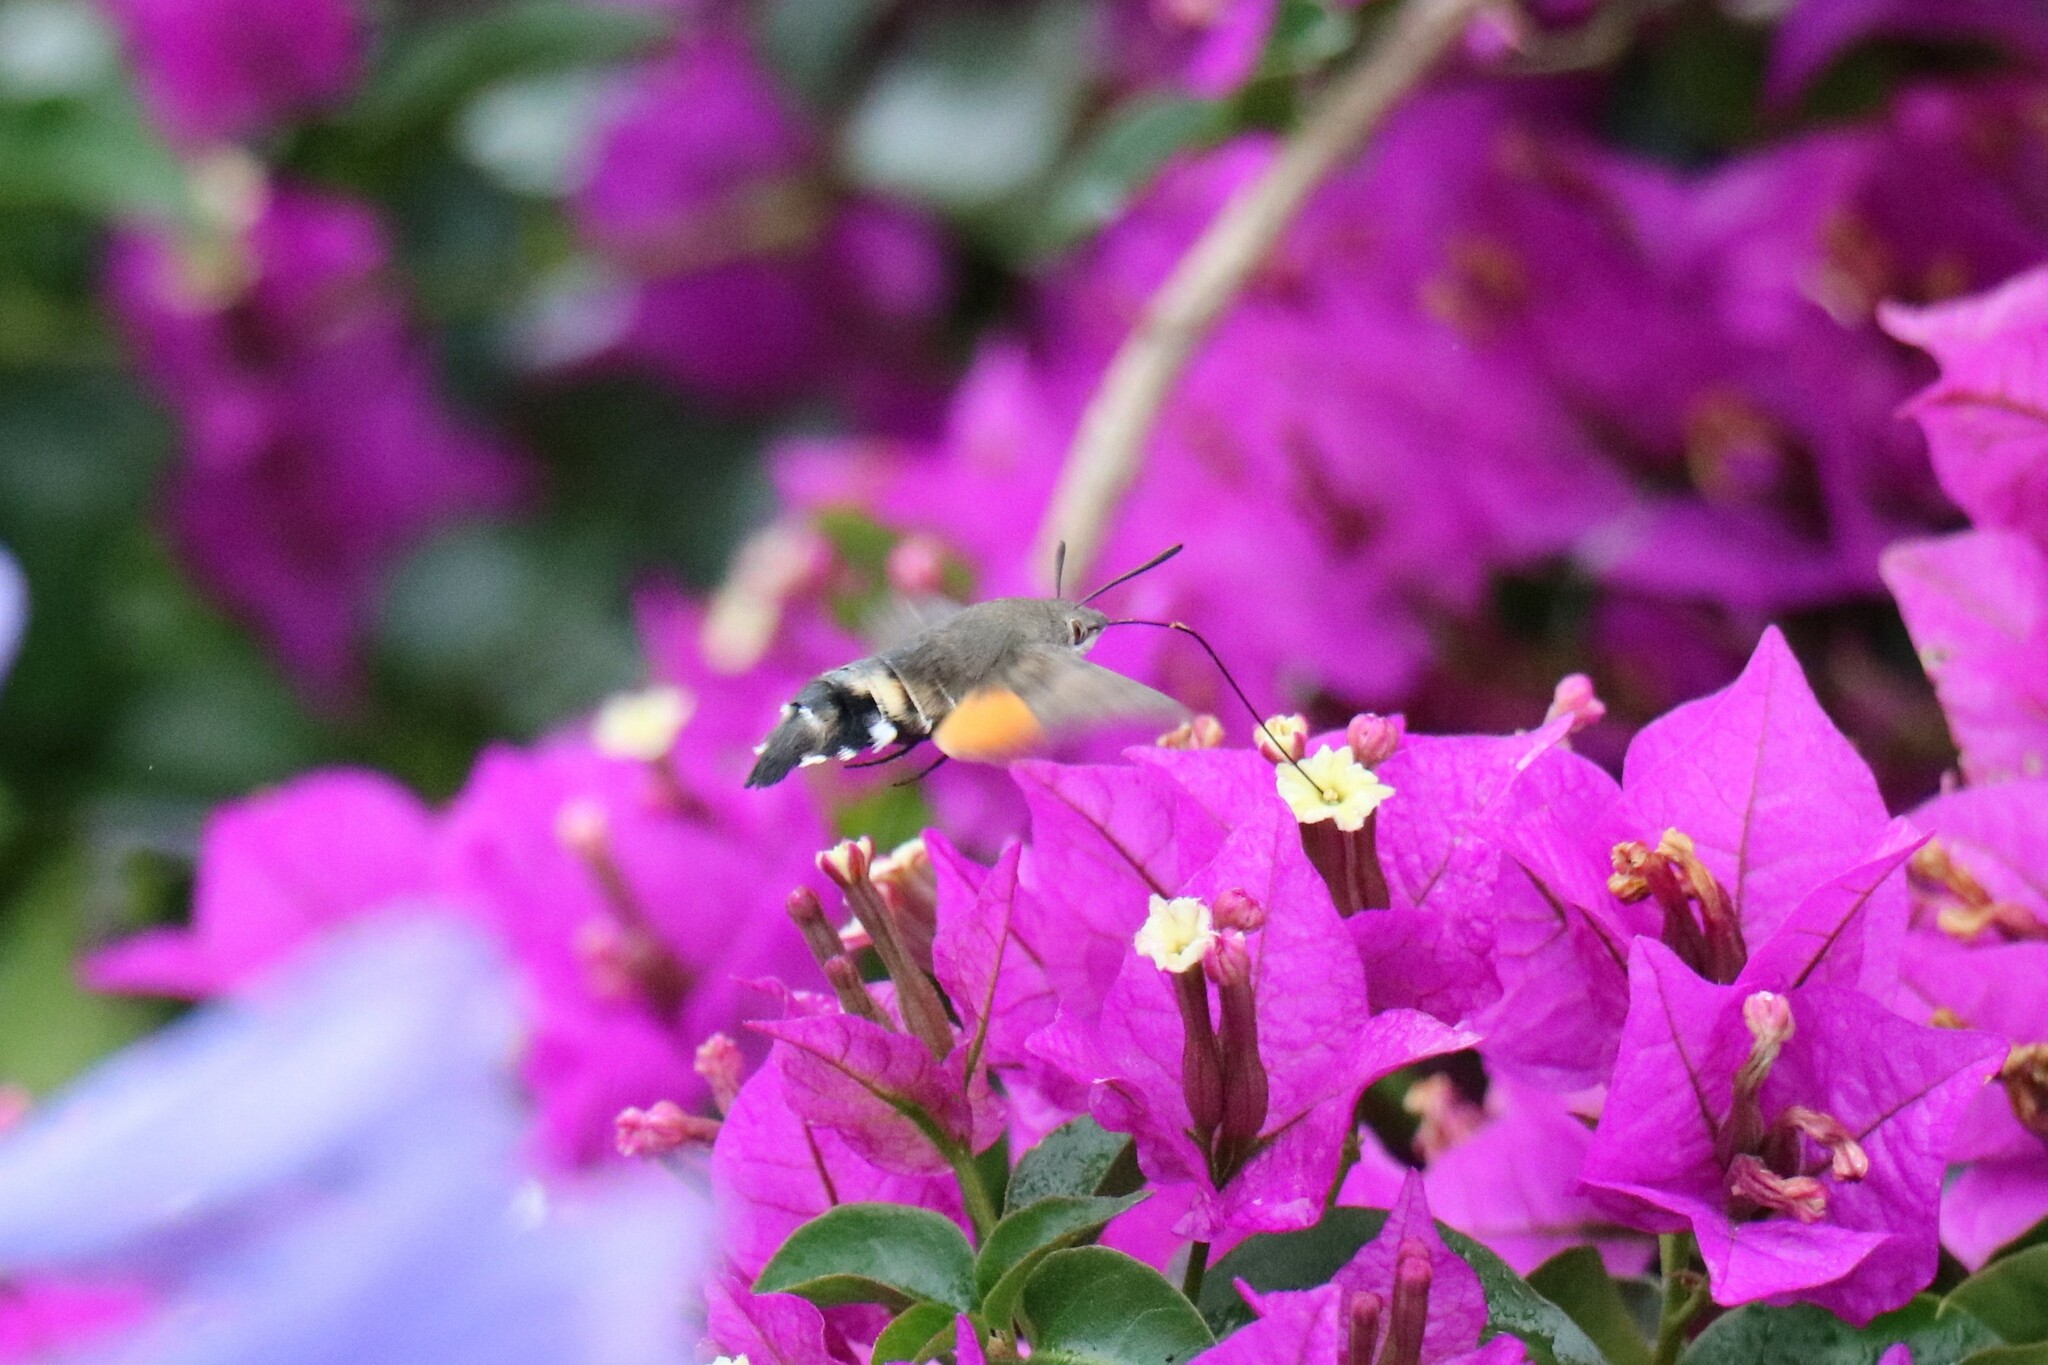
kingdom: Animalia
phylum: Arthropoda
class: Insecta
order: Lepidoptera
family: Sphingidae
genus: Macroglossum
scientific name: Macroglossum stellatarum
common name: Humming-bird hawk-moth
